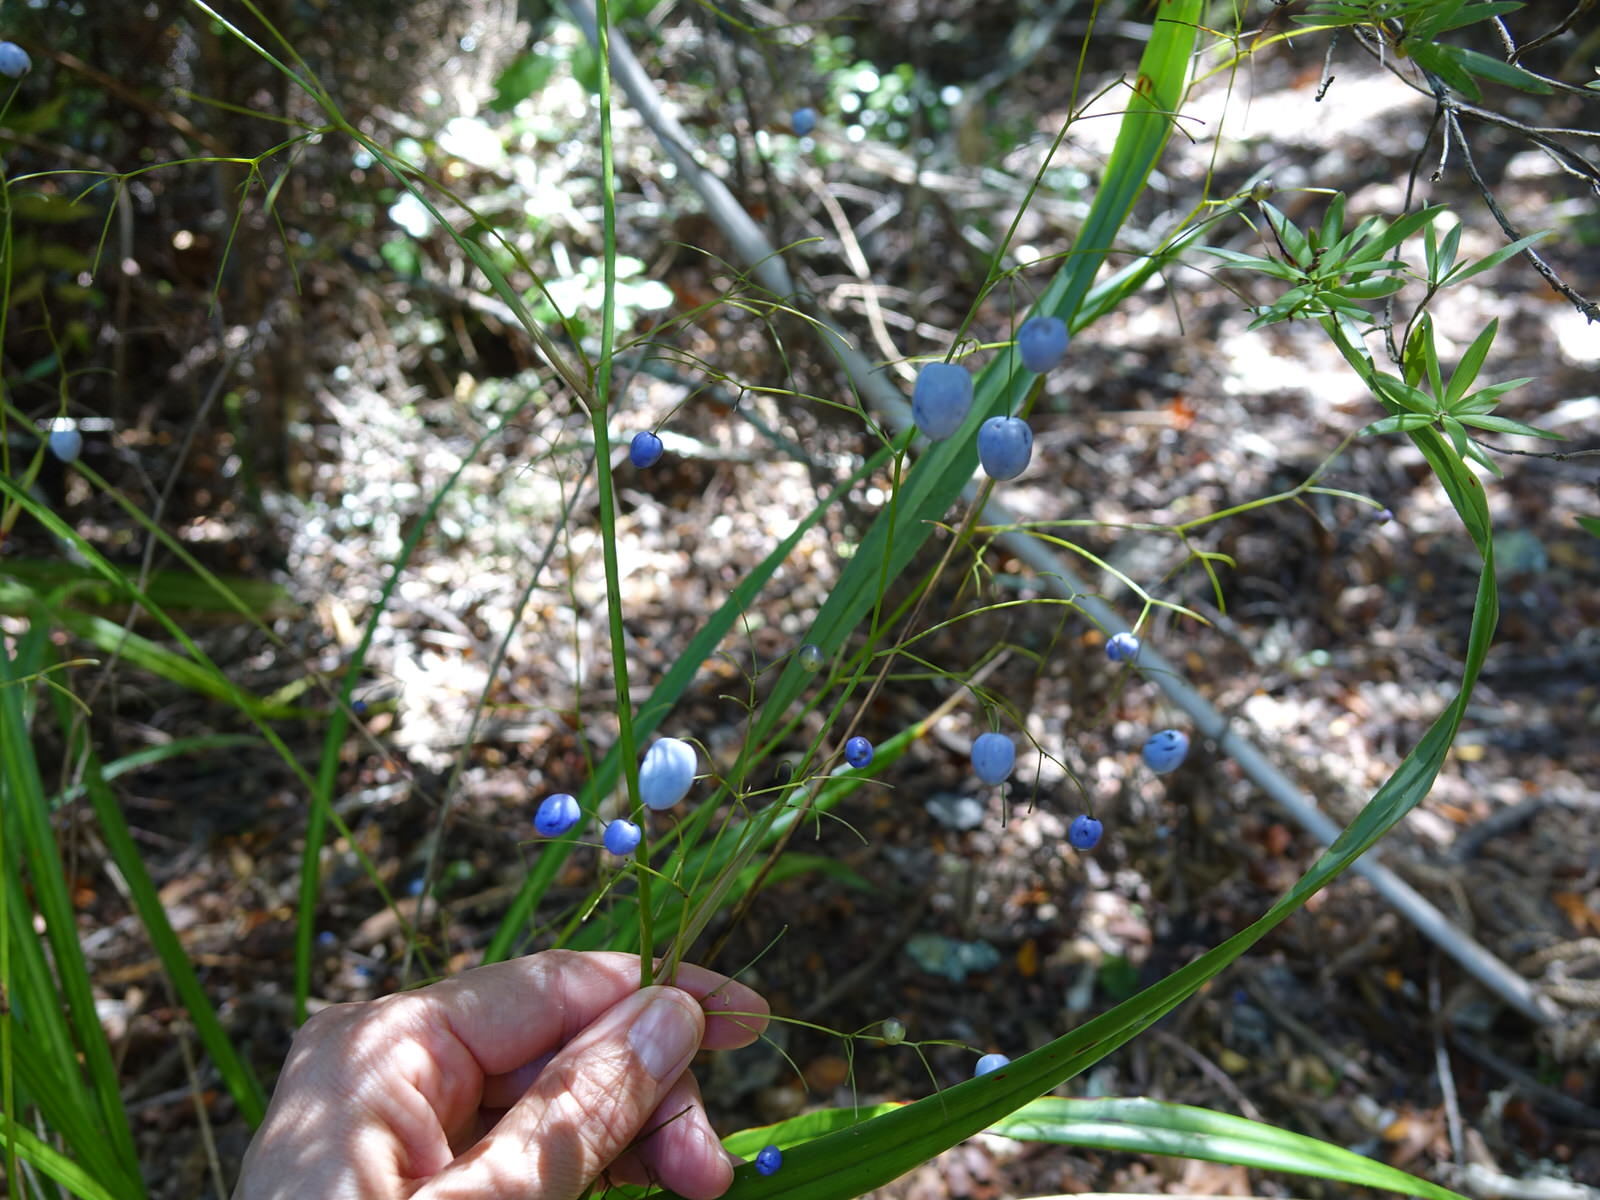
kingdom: Plantae
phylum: Tracheophyta
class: Liliopsida
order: Asparagales
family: Asphodelaceae
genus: Dianella
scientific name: Dianella nigra
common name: New zealand-blueberry
